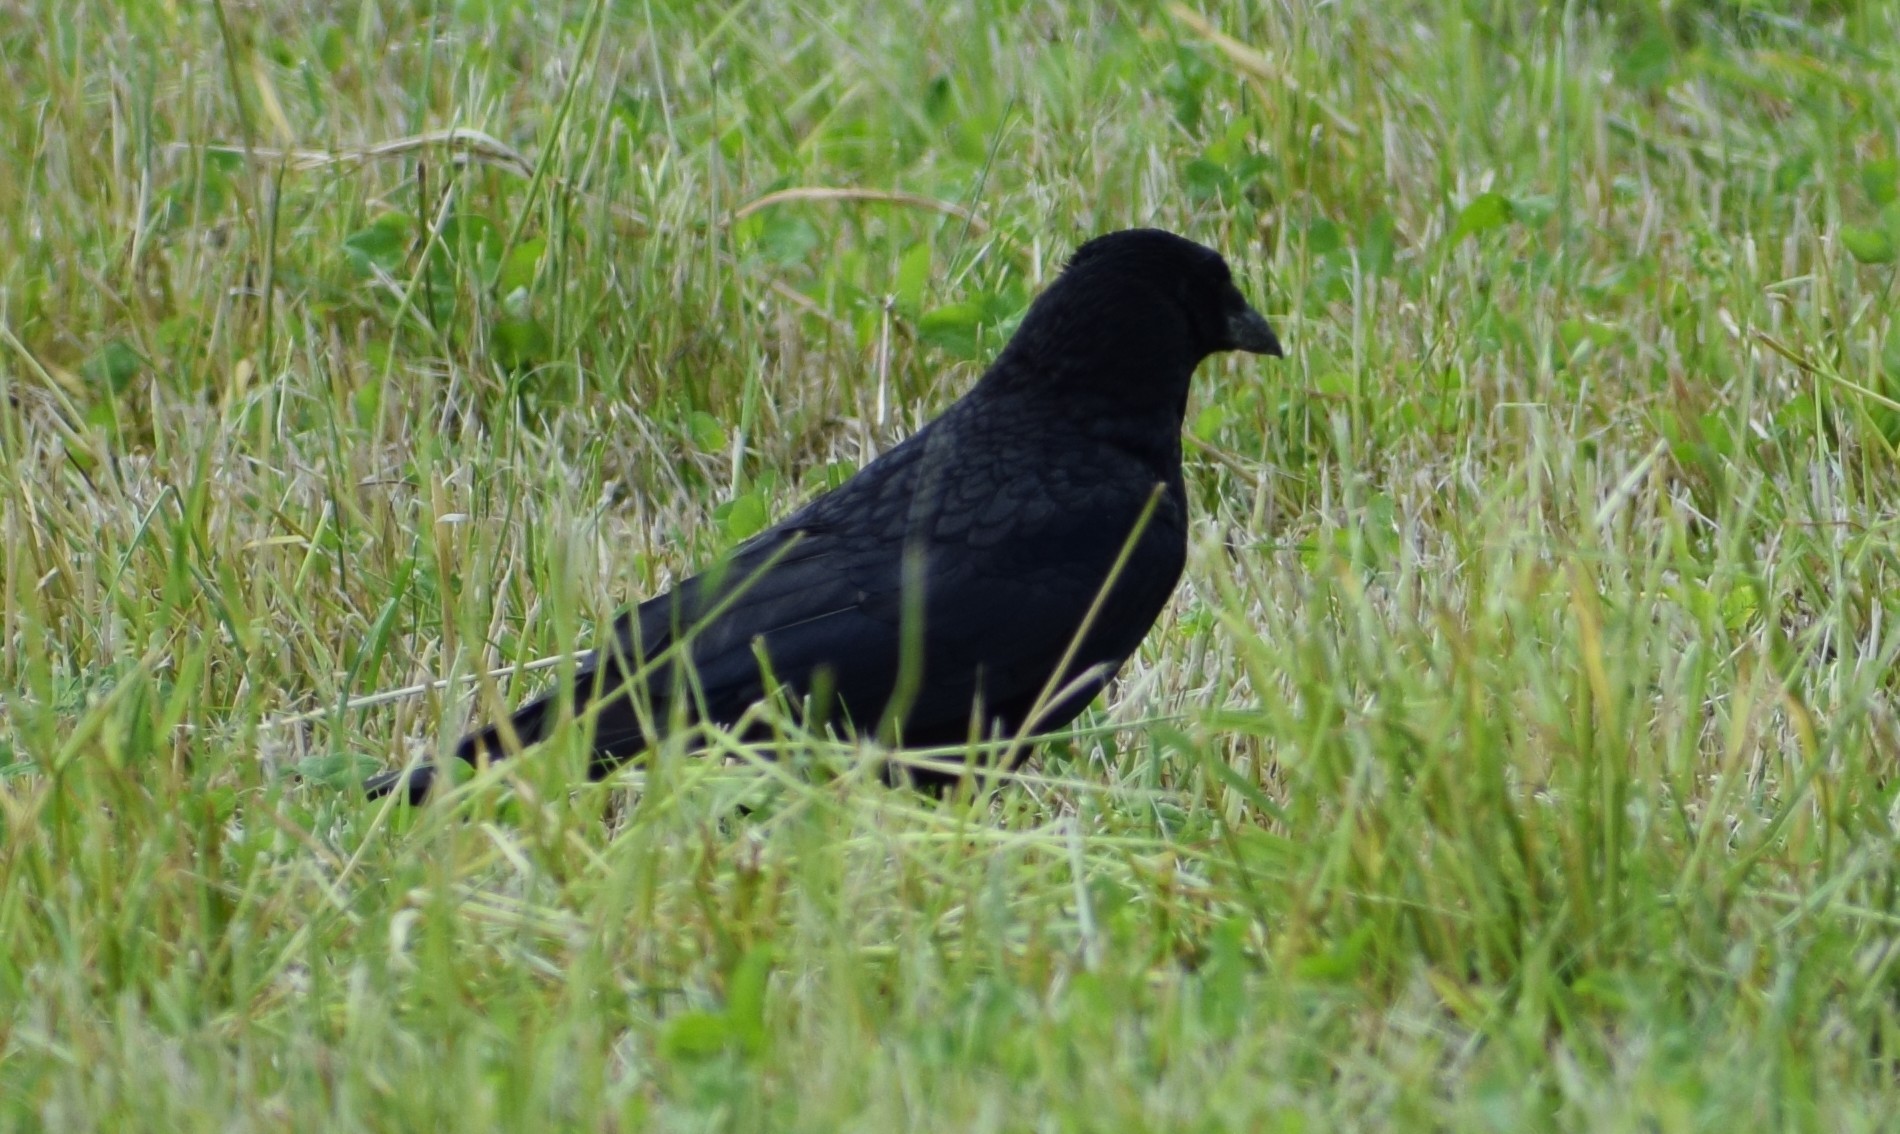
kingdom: Animalia
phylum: Chordata
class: Aves
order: Passeriformes
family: Corvidae
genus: Corvus
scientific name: Corvus corone
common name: Carrion crow
